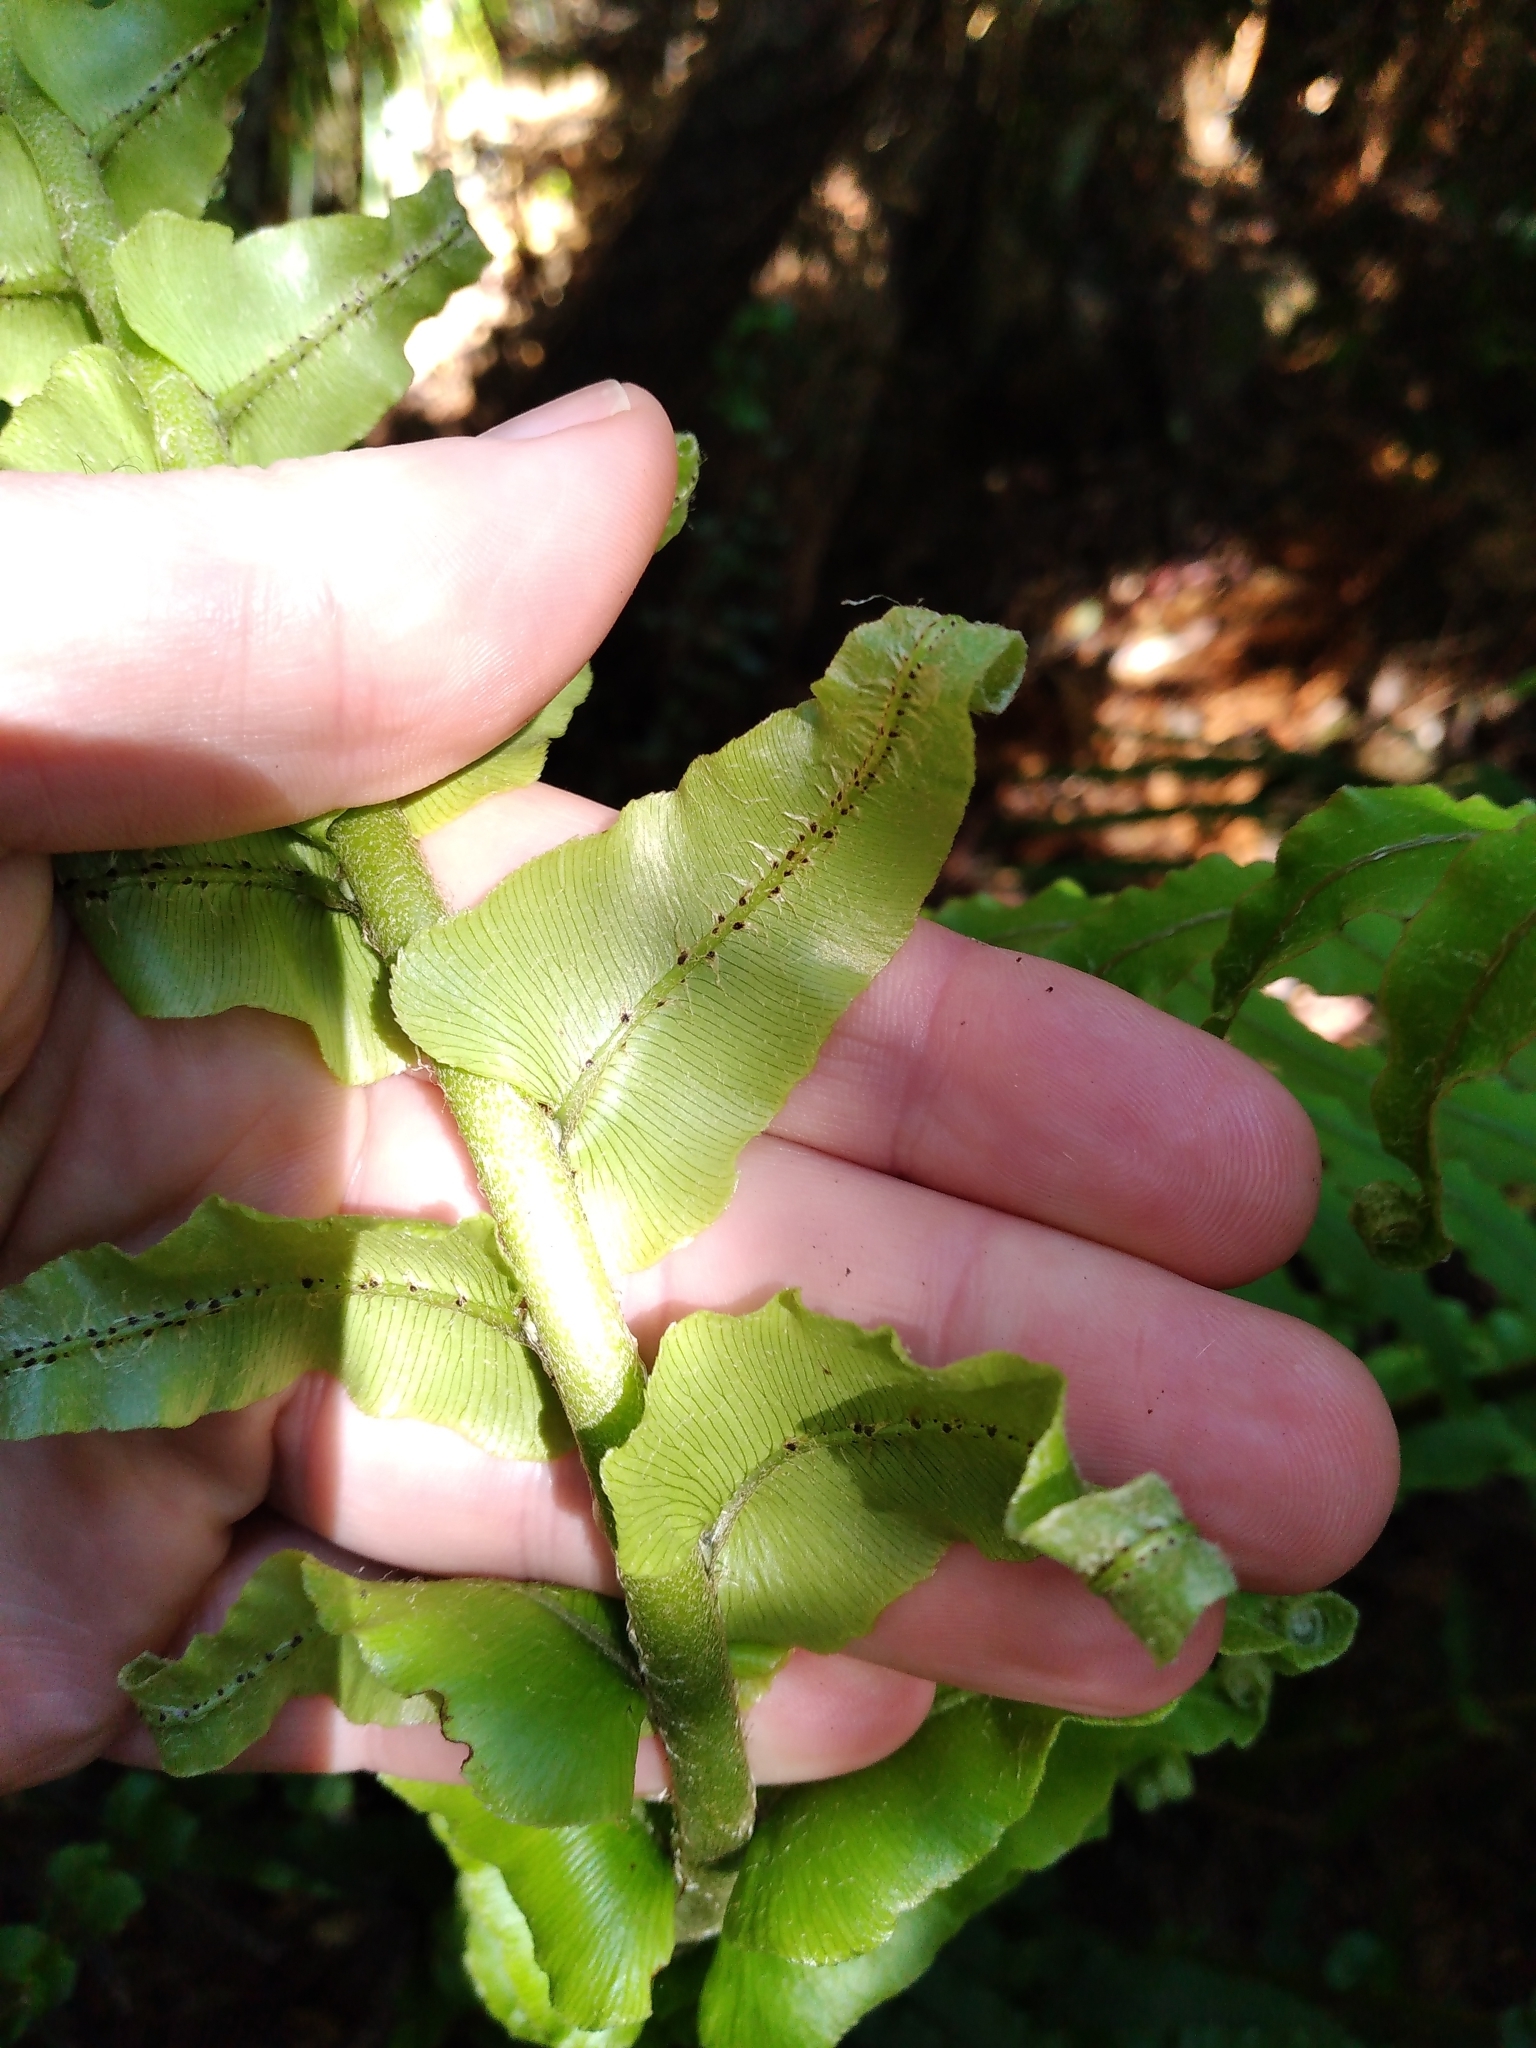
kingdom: Plantae
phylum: Tracheophyta
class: Polypodiopsida
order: Polypodiales
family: Blechnaceae
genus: Parablechnum
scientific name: Parablechnum novae-zelandiae
